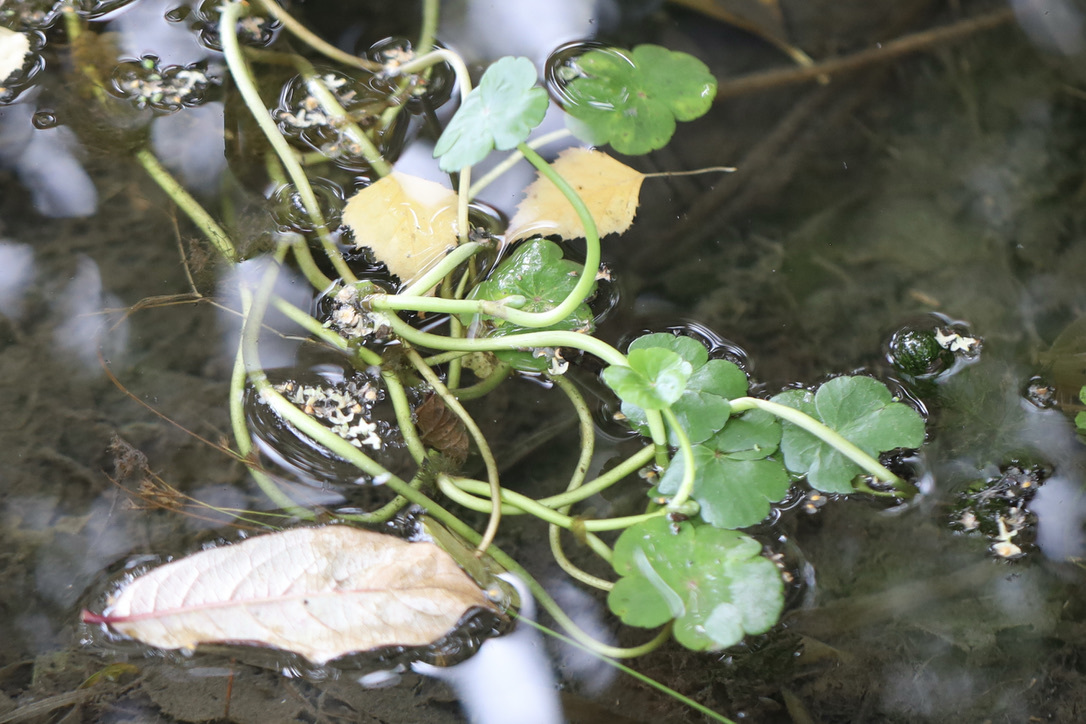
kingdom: Plantae
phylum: Tracheophyta
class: Magnoliopsida
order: Apiales
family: Araliaceae
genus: Hydrocotyle
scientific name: Hydrocotyle ranunculoides
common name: Floating pennywort
